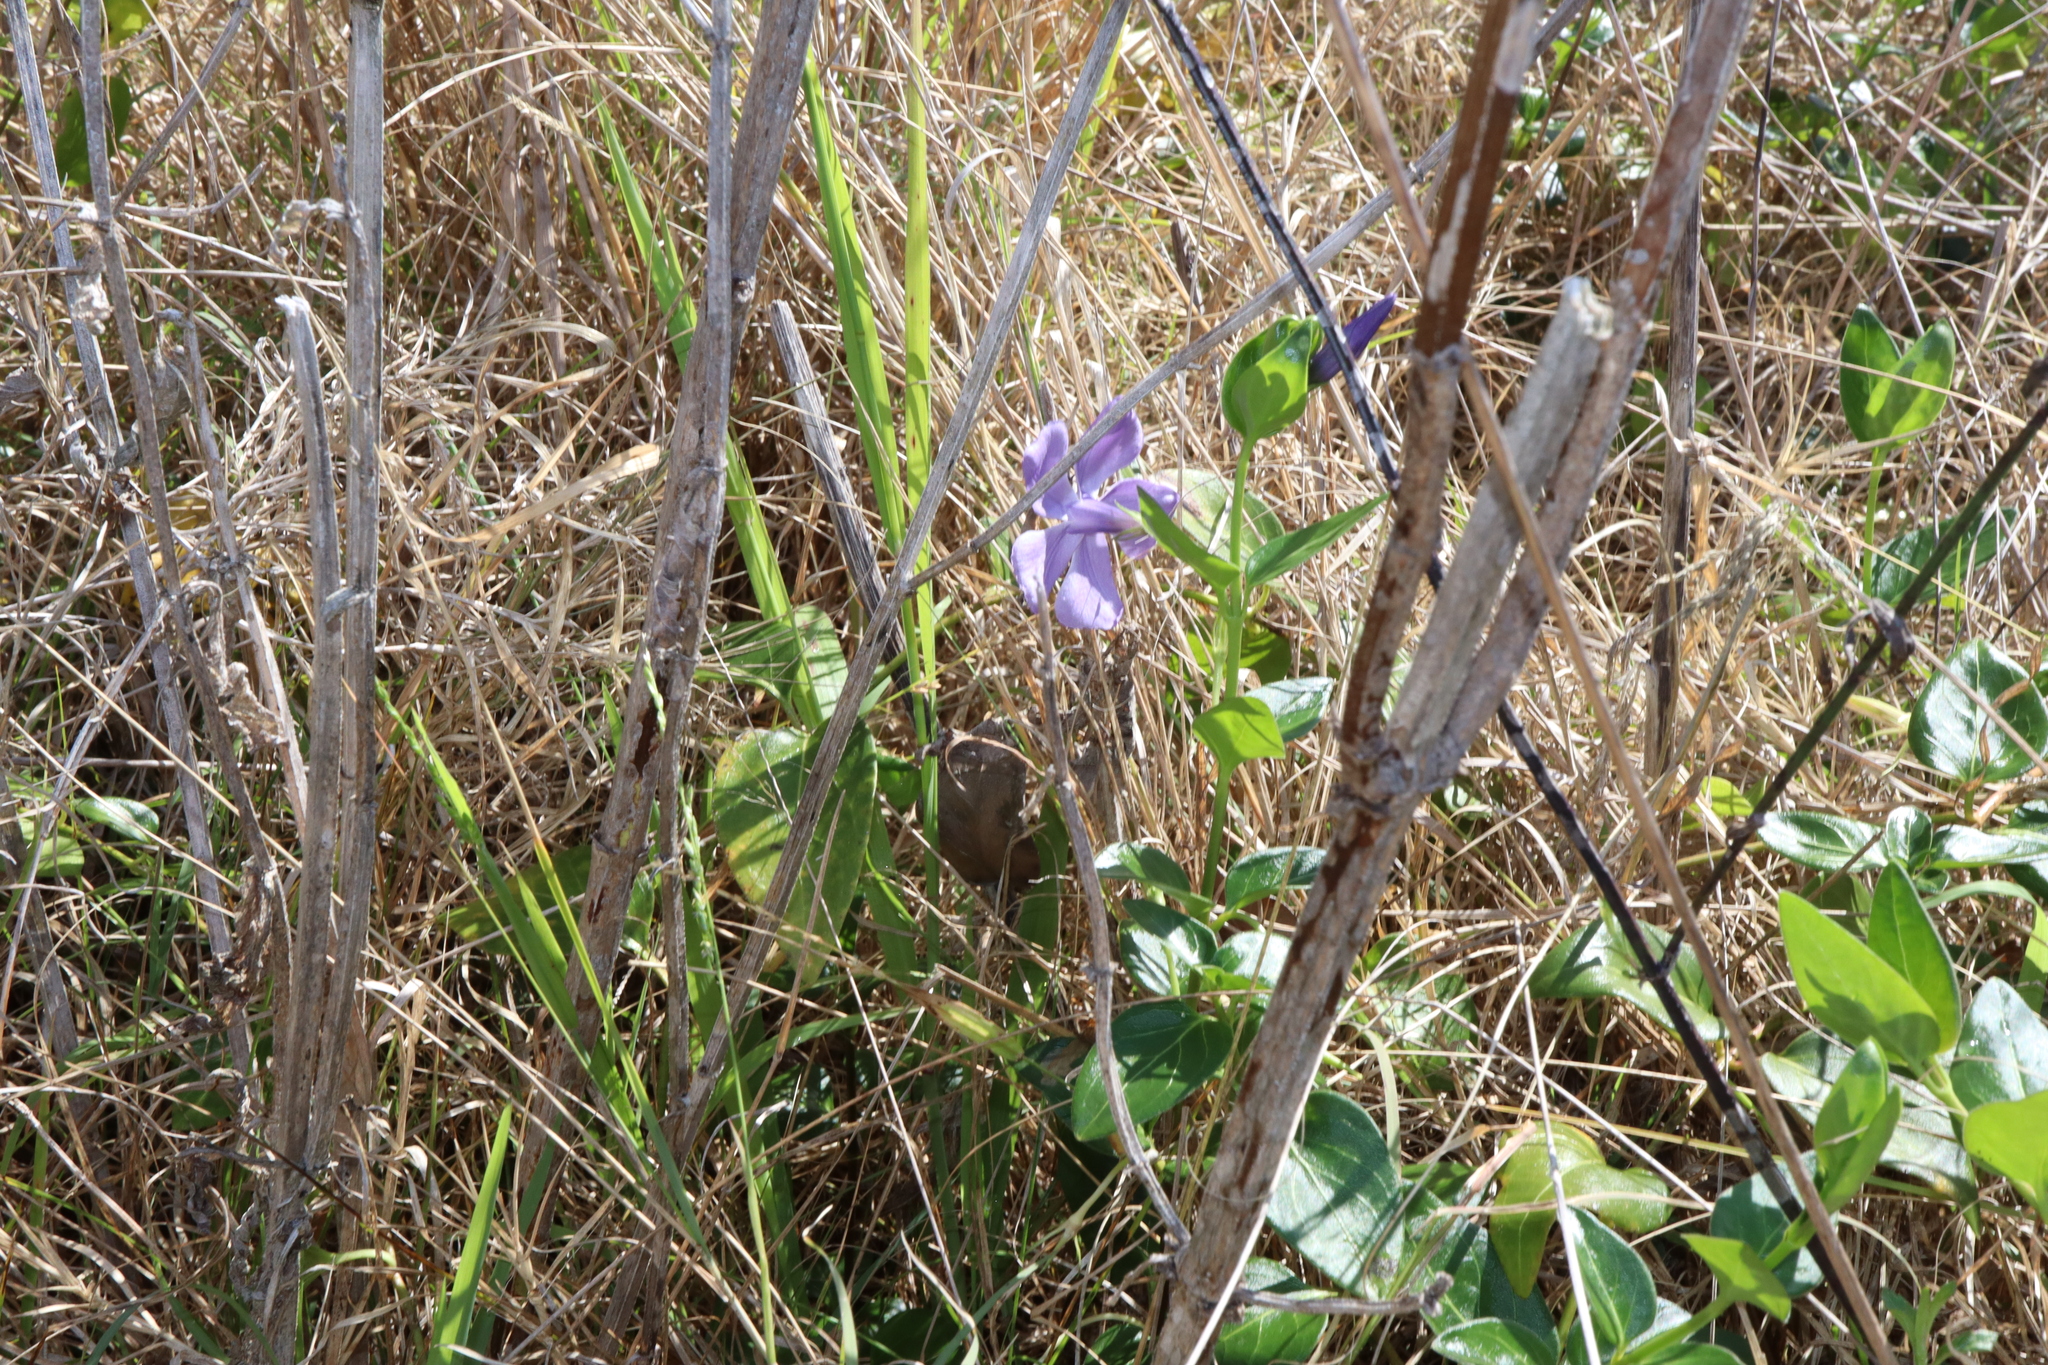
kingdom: Plantae
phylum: Tracheophyta
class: Magnoliopsida
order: Gentianales
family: Apocynaceae
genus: Vinca
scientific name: Vinca major
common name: Greater periwinkle
